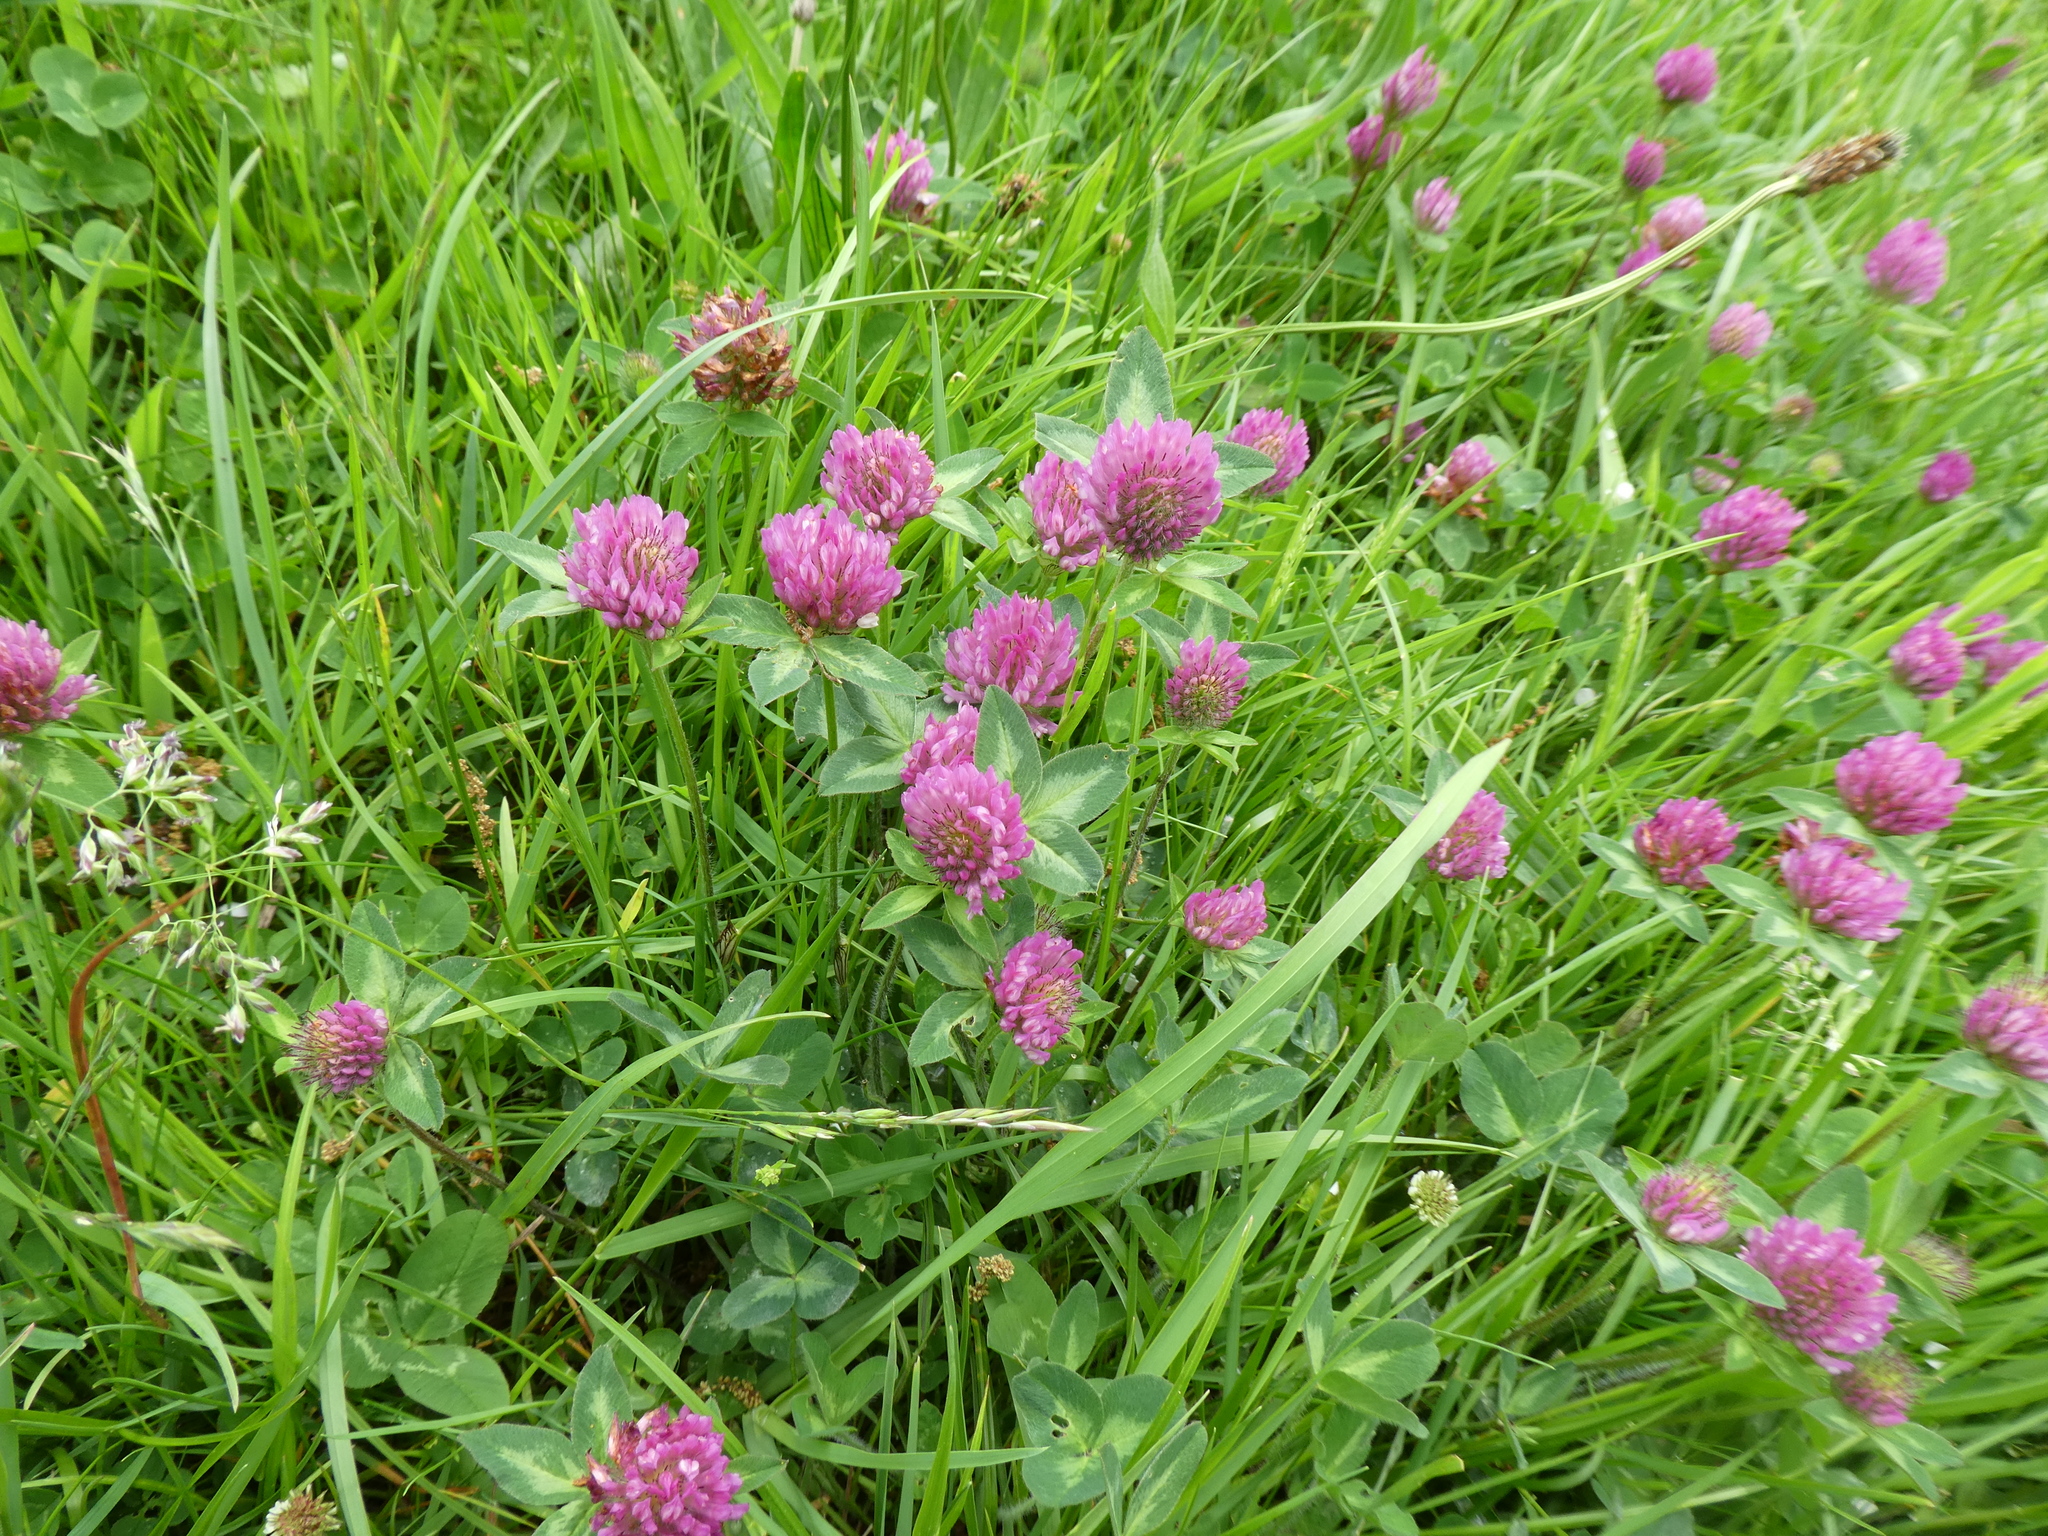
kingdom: Plantae
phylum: Tracheophyta
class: Magnoliopsida
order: Fabales
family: Fabaceae
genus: Trifolium
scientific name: Trifolium pratense
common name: Red clover
